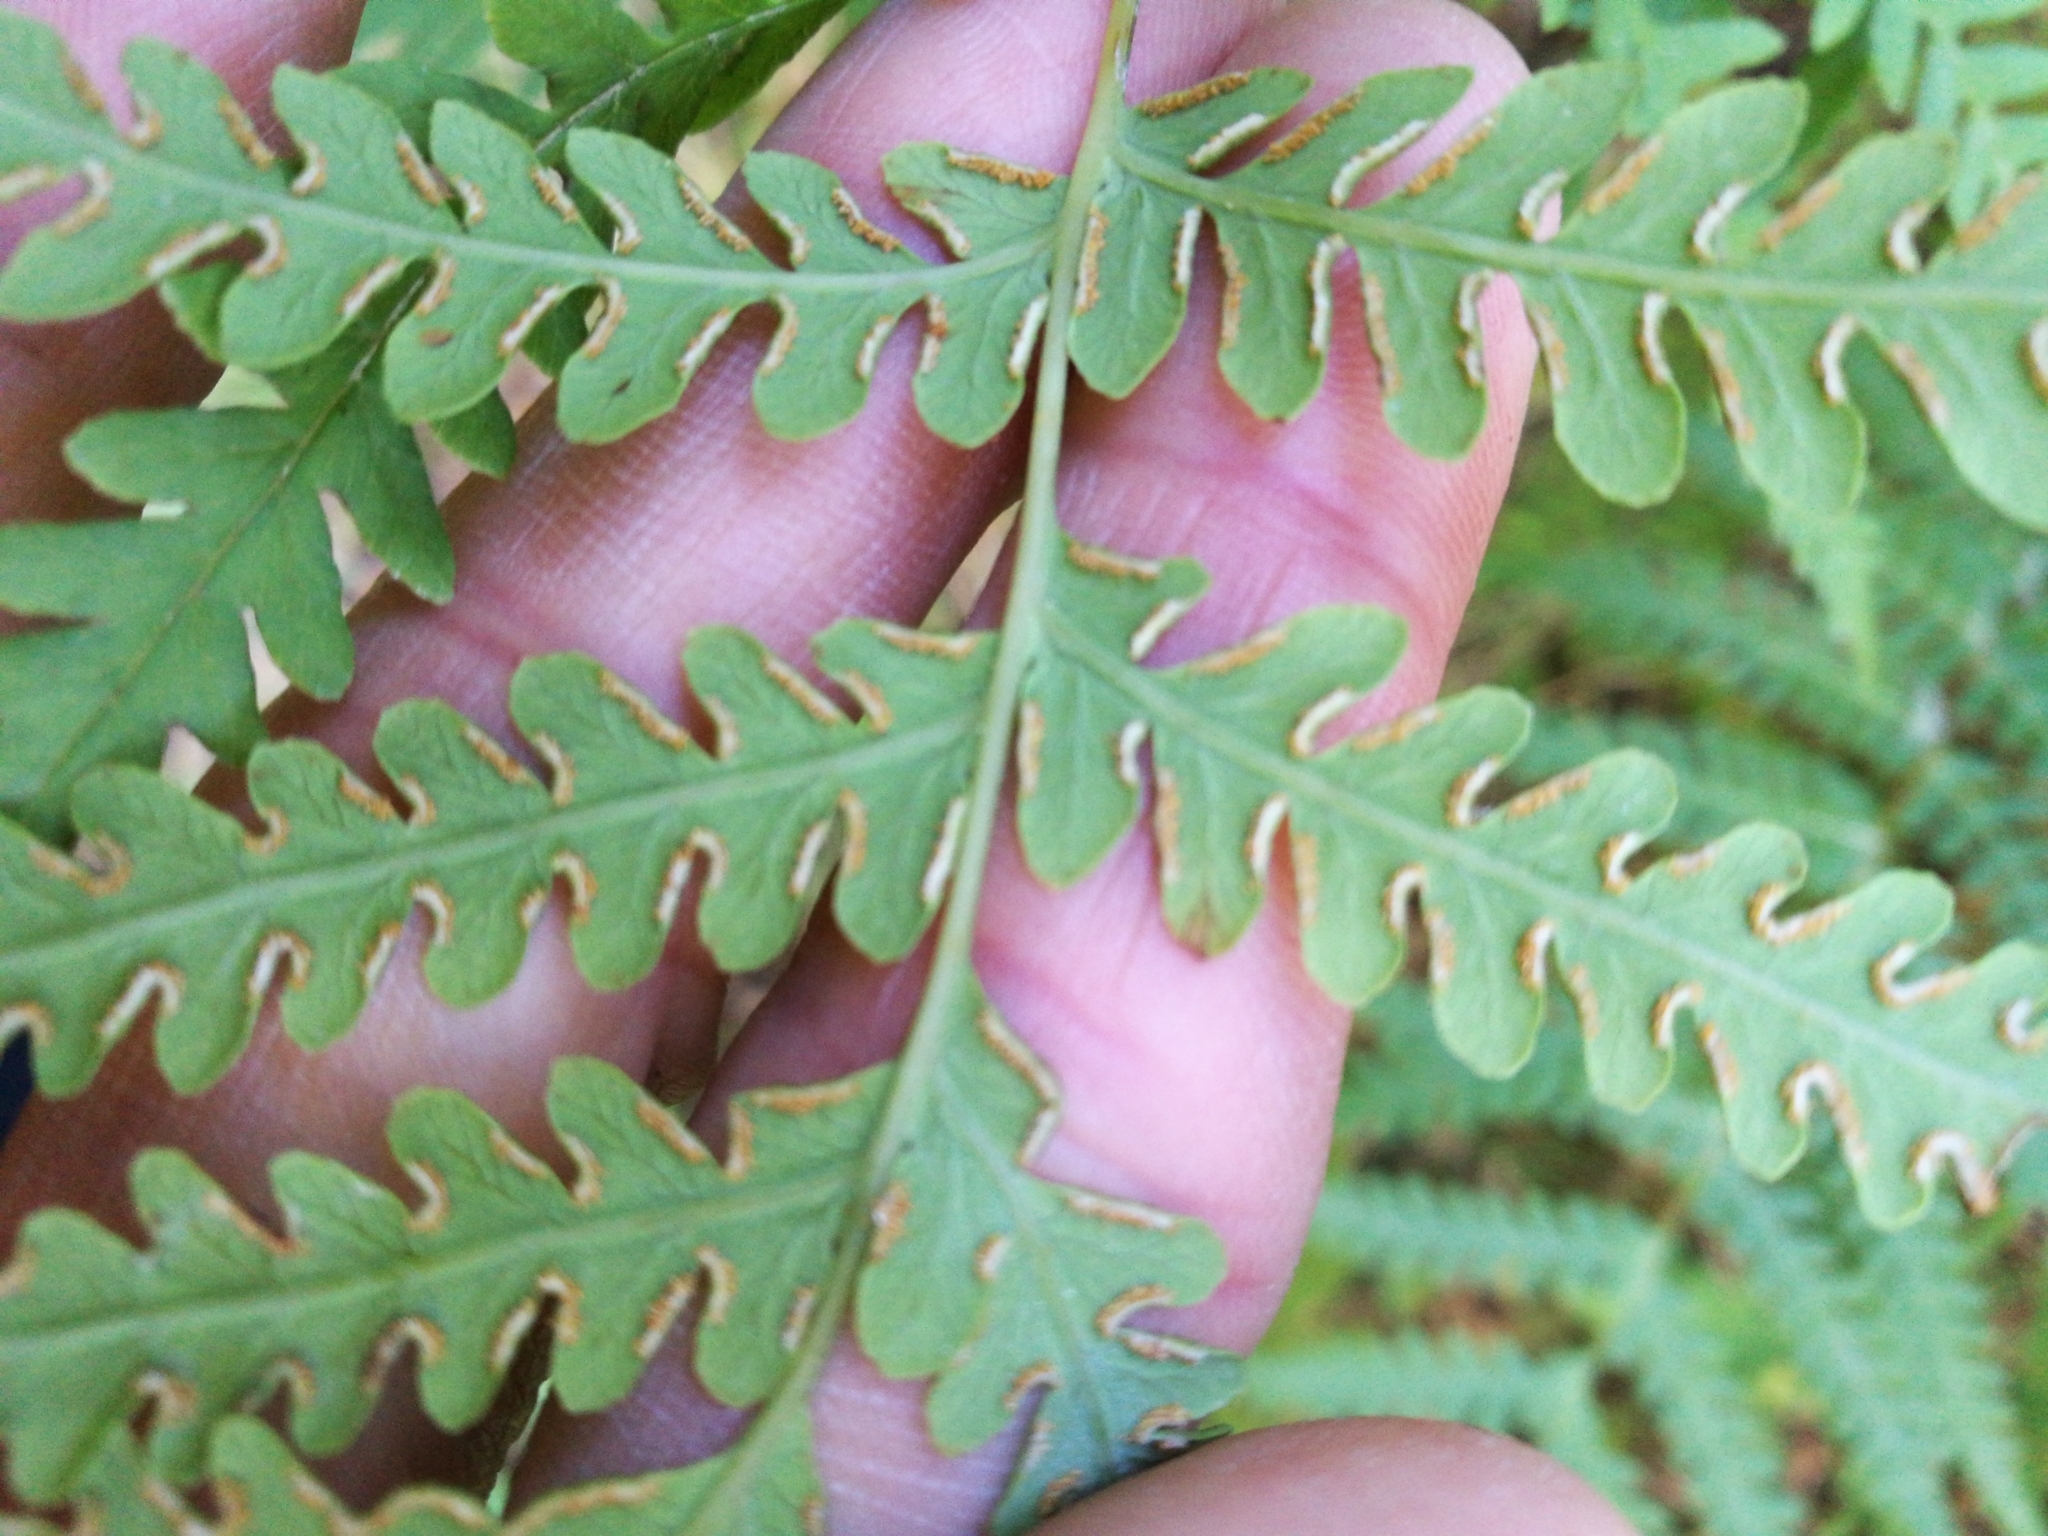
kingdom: Plantae
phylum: Tracheophyta
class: Polypodiopsida
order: Polypodiales
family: Dennstaedtiaceae
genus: Histiopteris
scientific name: Histiopteris incisa
